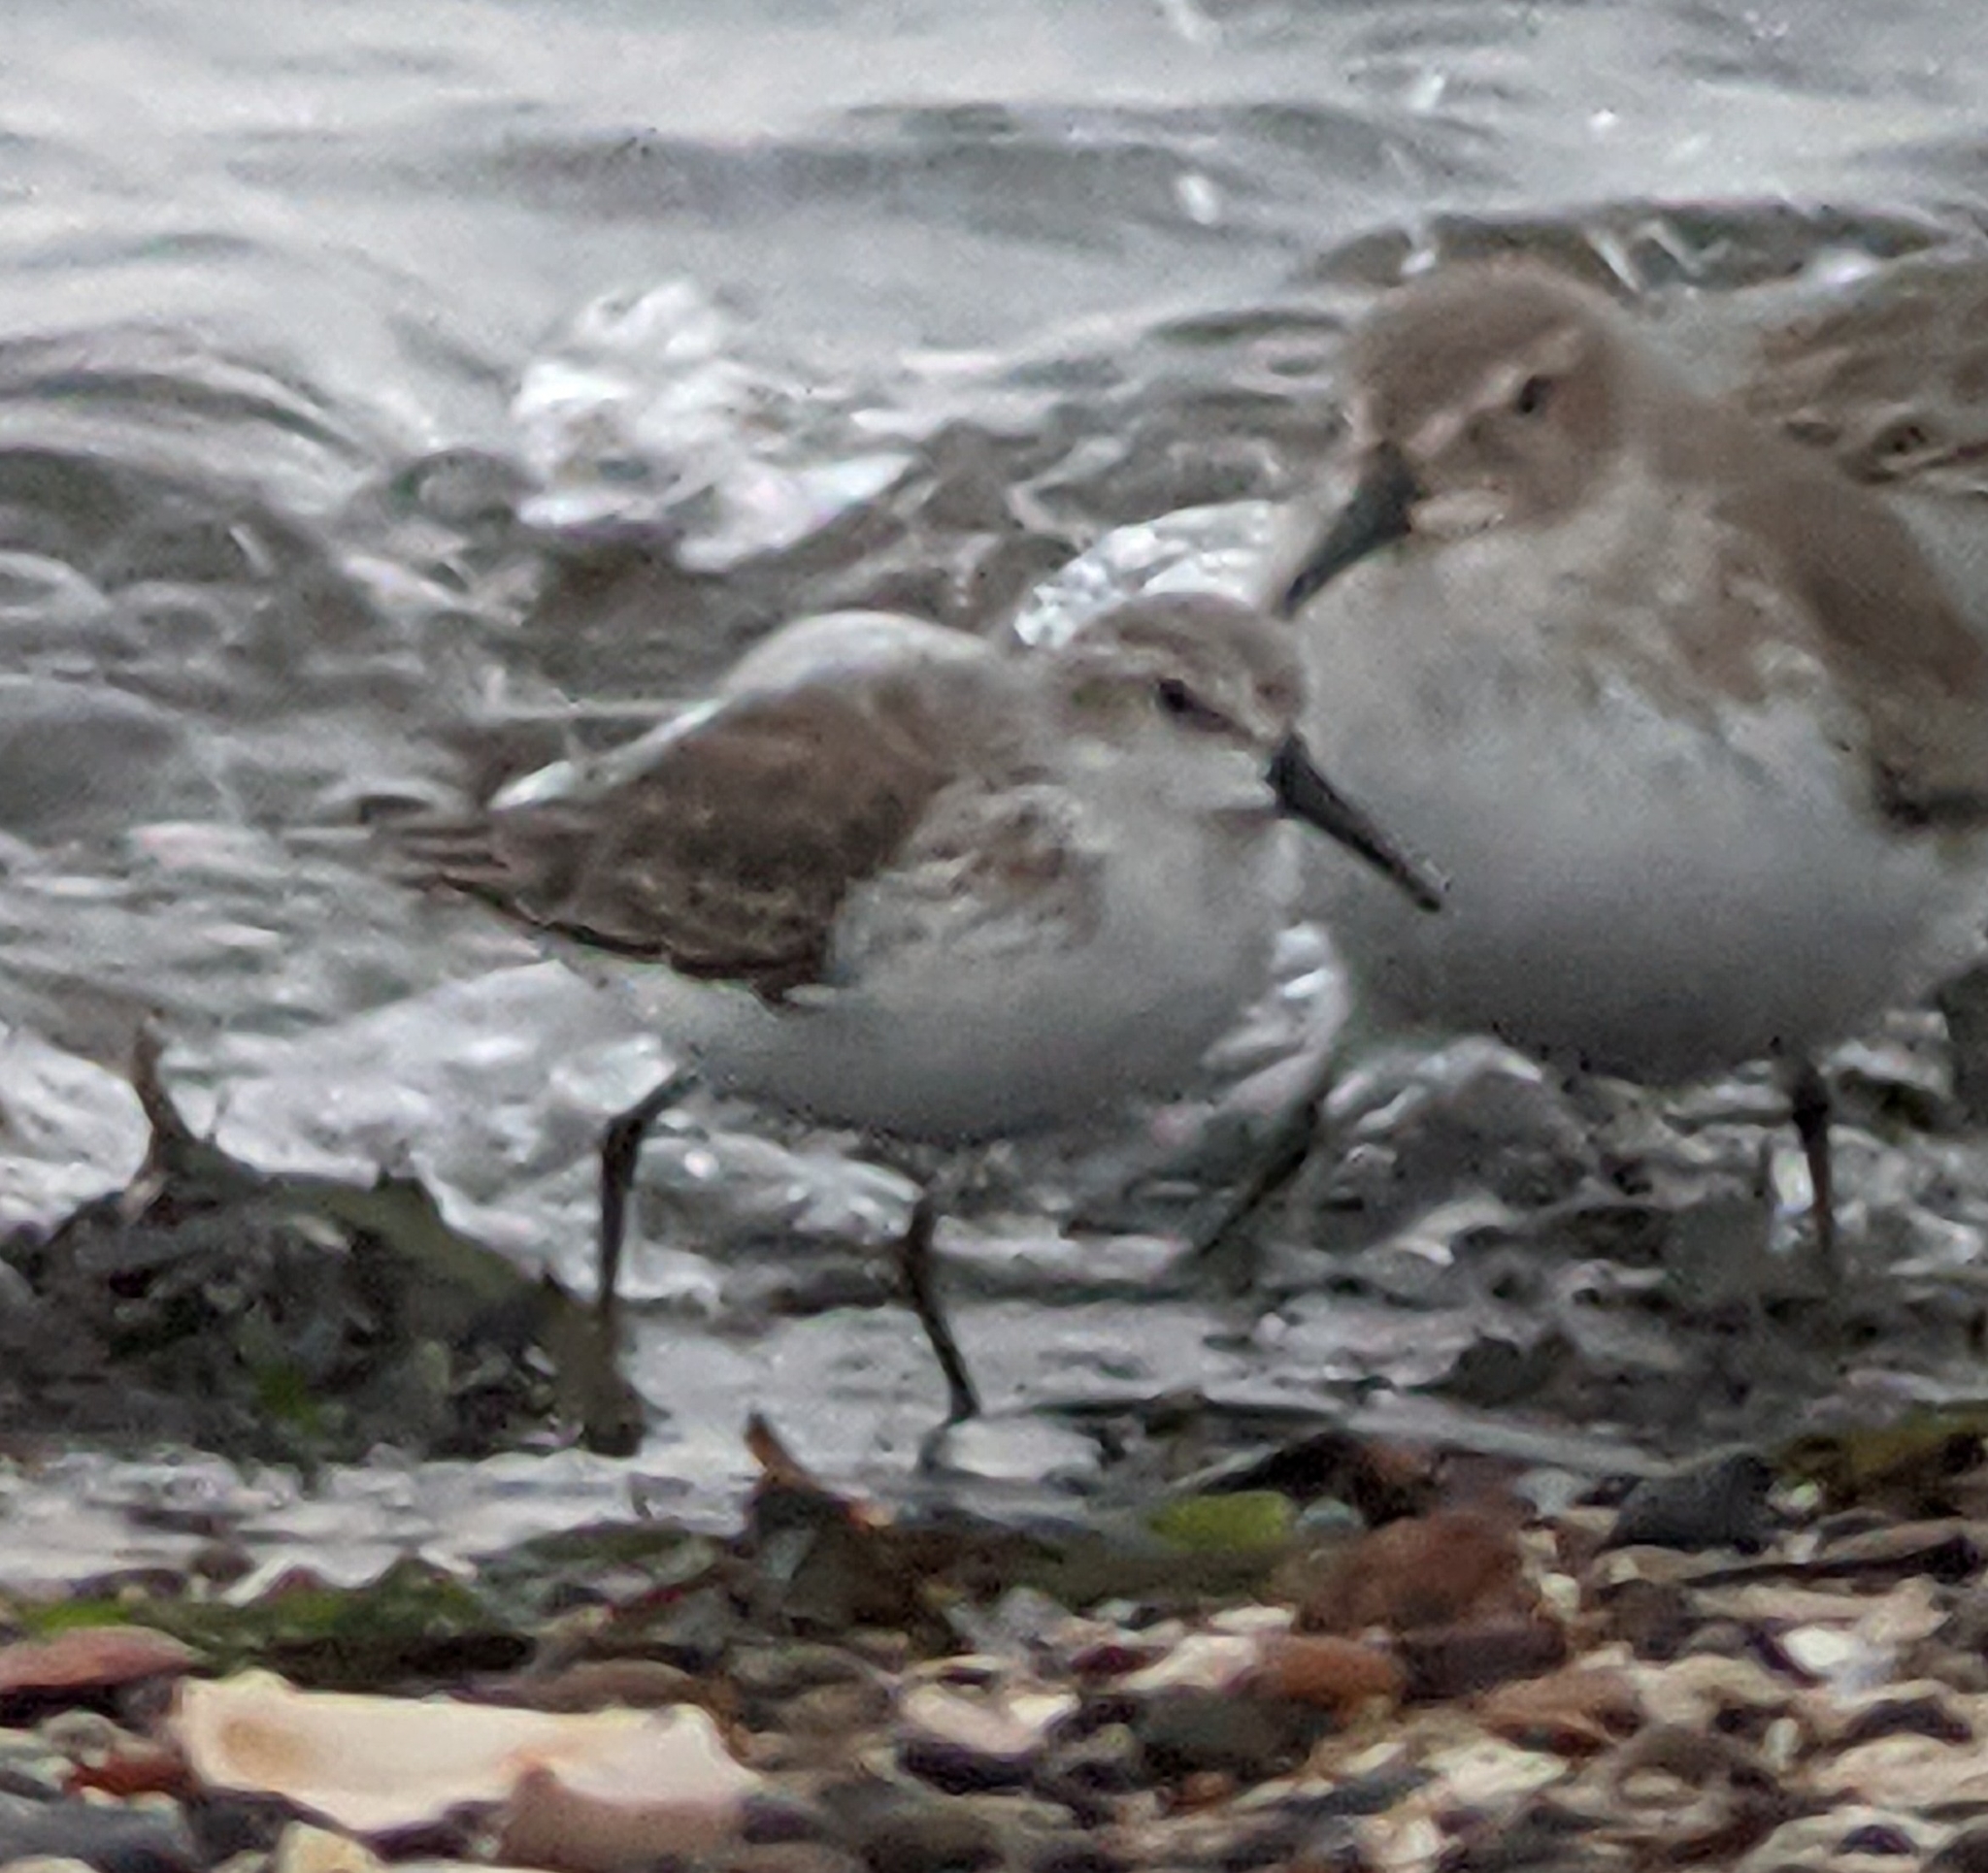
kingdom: Animalia
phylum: Chordata
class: Aves
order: Charadriiformes
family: Scolopacidae
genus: Calidris
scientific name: Calidris mauri
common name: Western sandpiper
